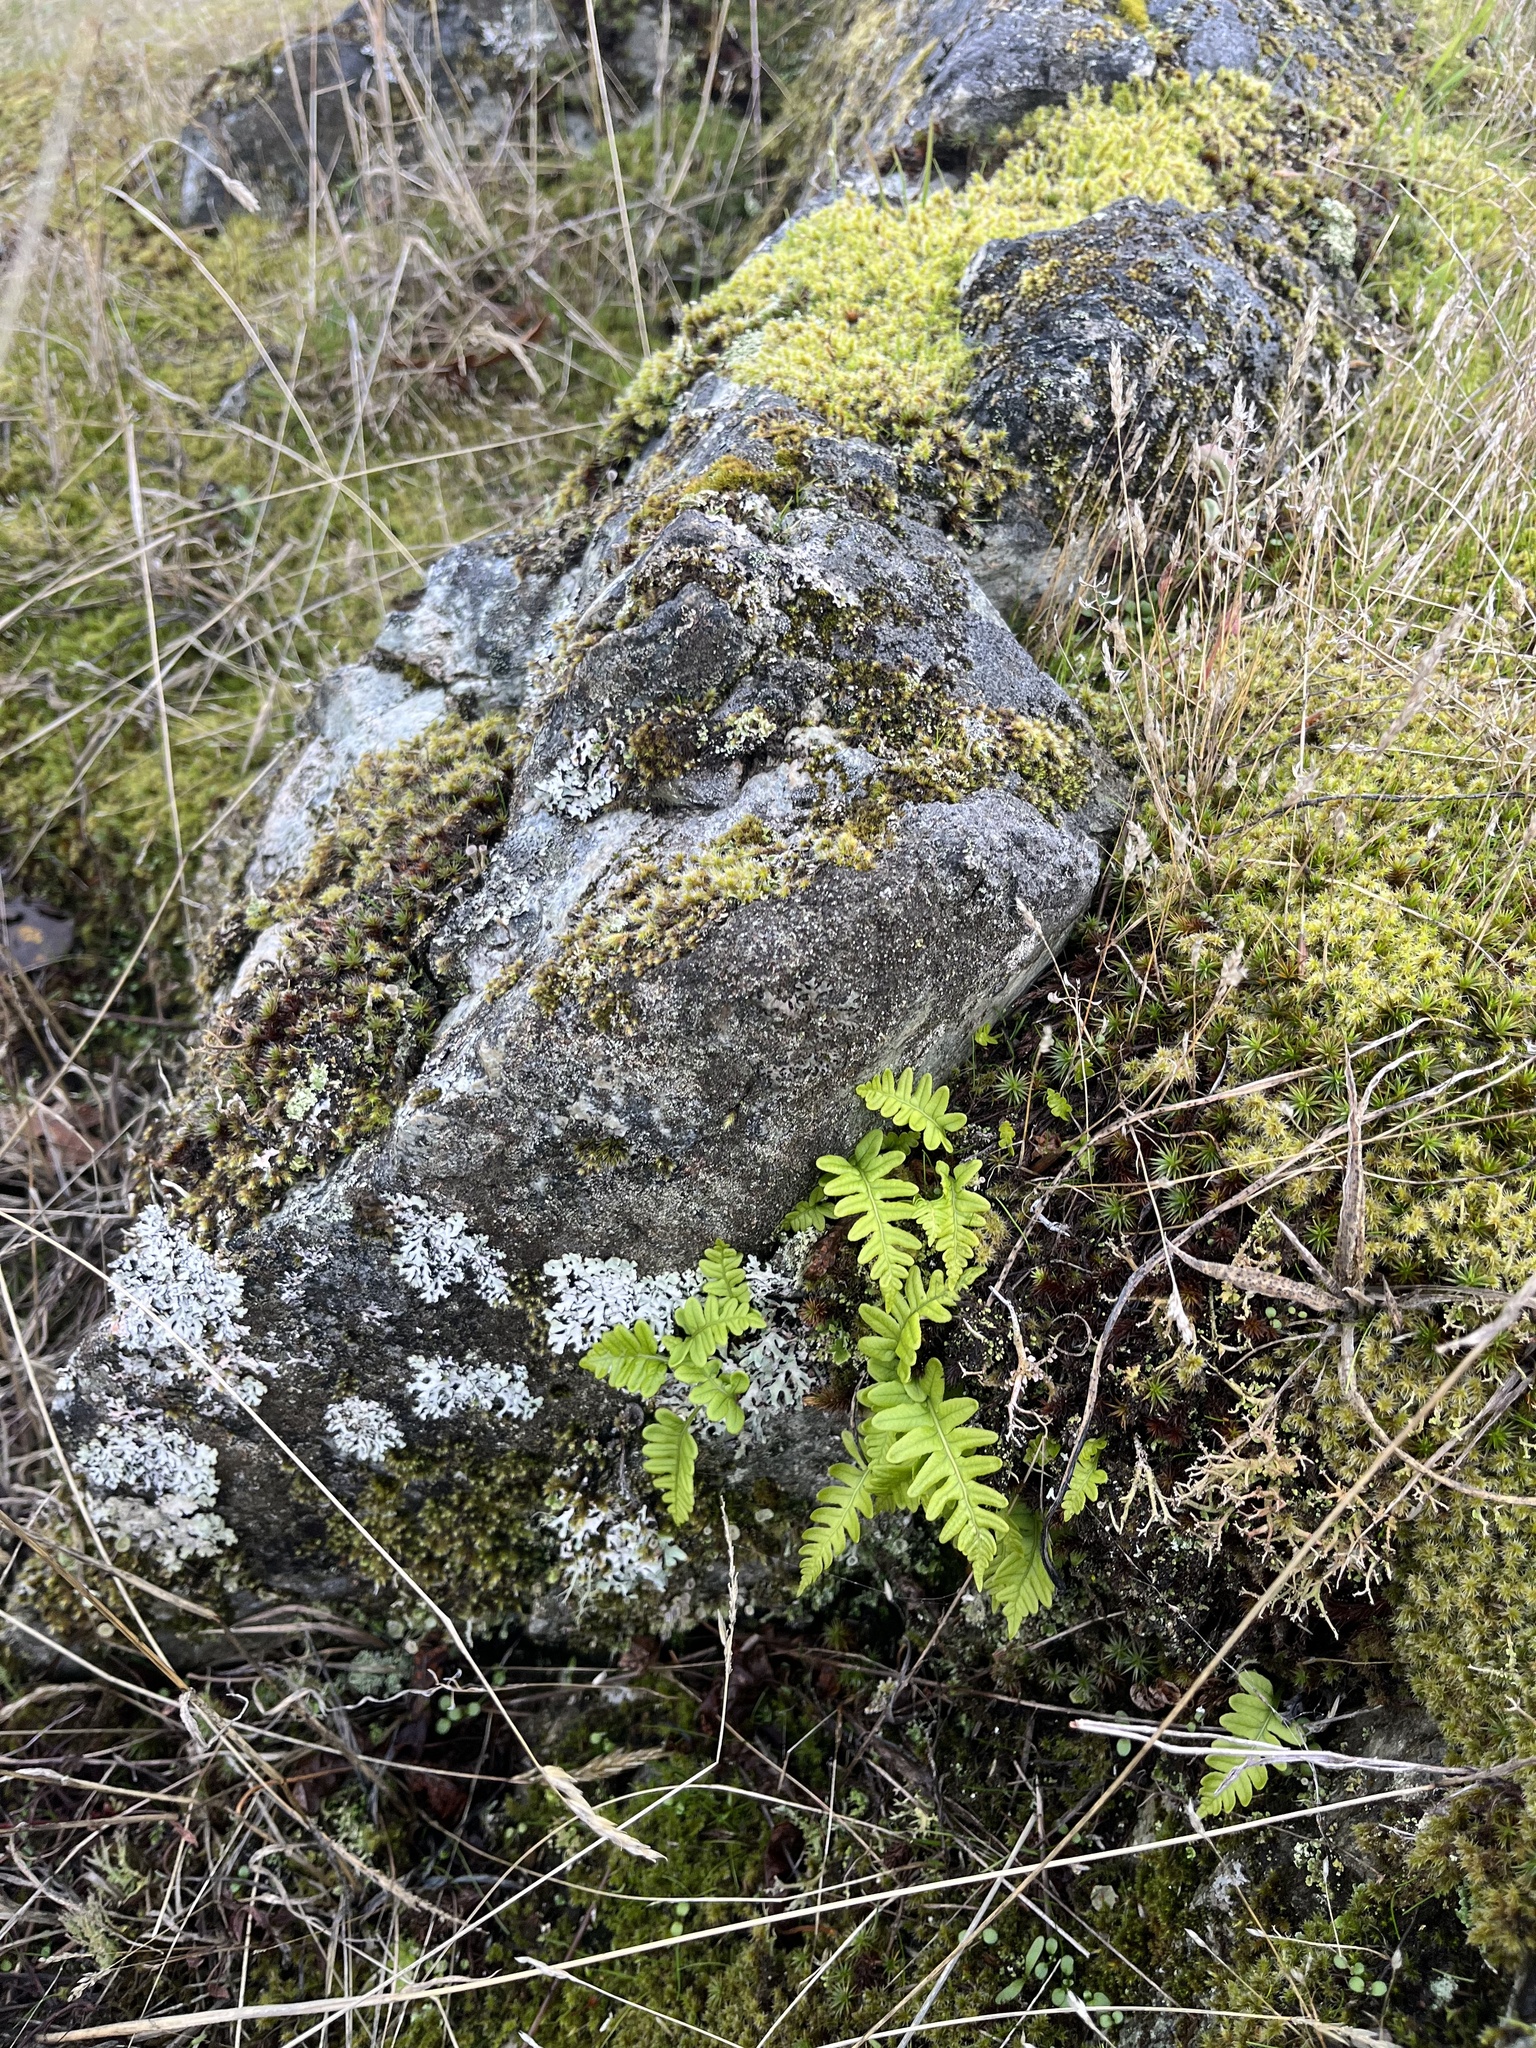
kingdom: Plantae
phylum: Tracheophyta
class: Polypodiopsida
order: Polypodiales
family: Polypodiaceae
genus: Polypodium
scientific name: Polypodium glycyrrhiza
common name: Licorice fern
